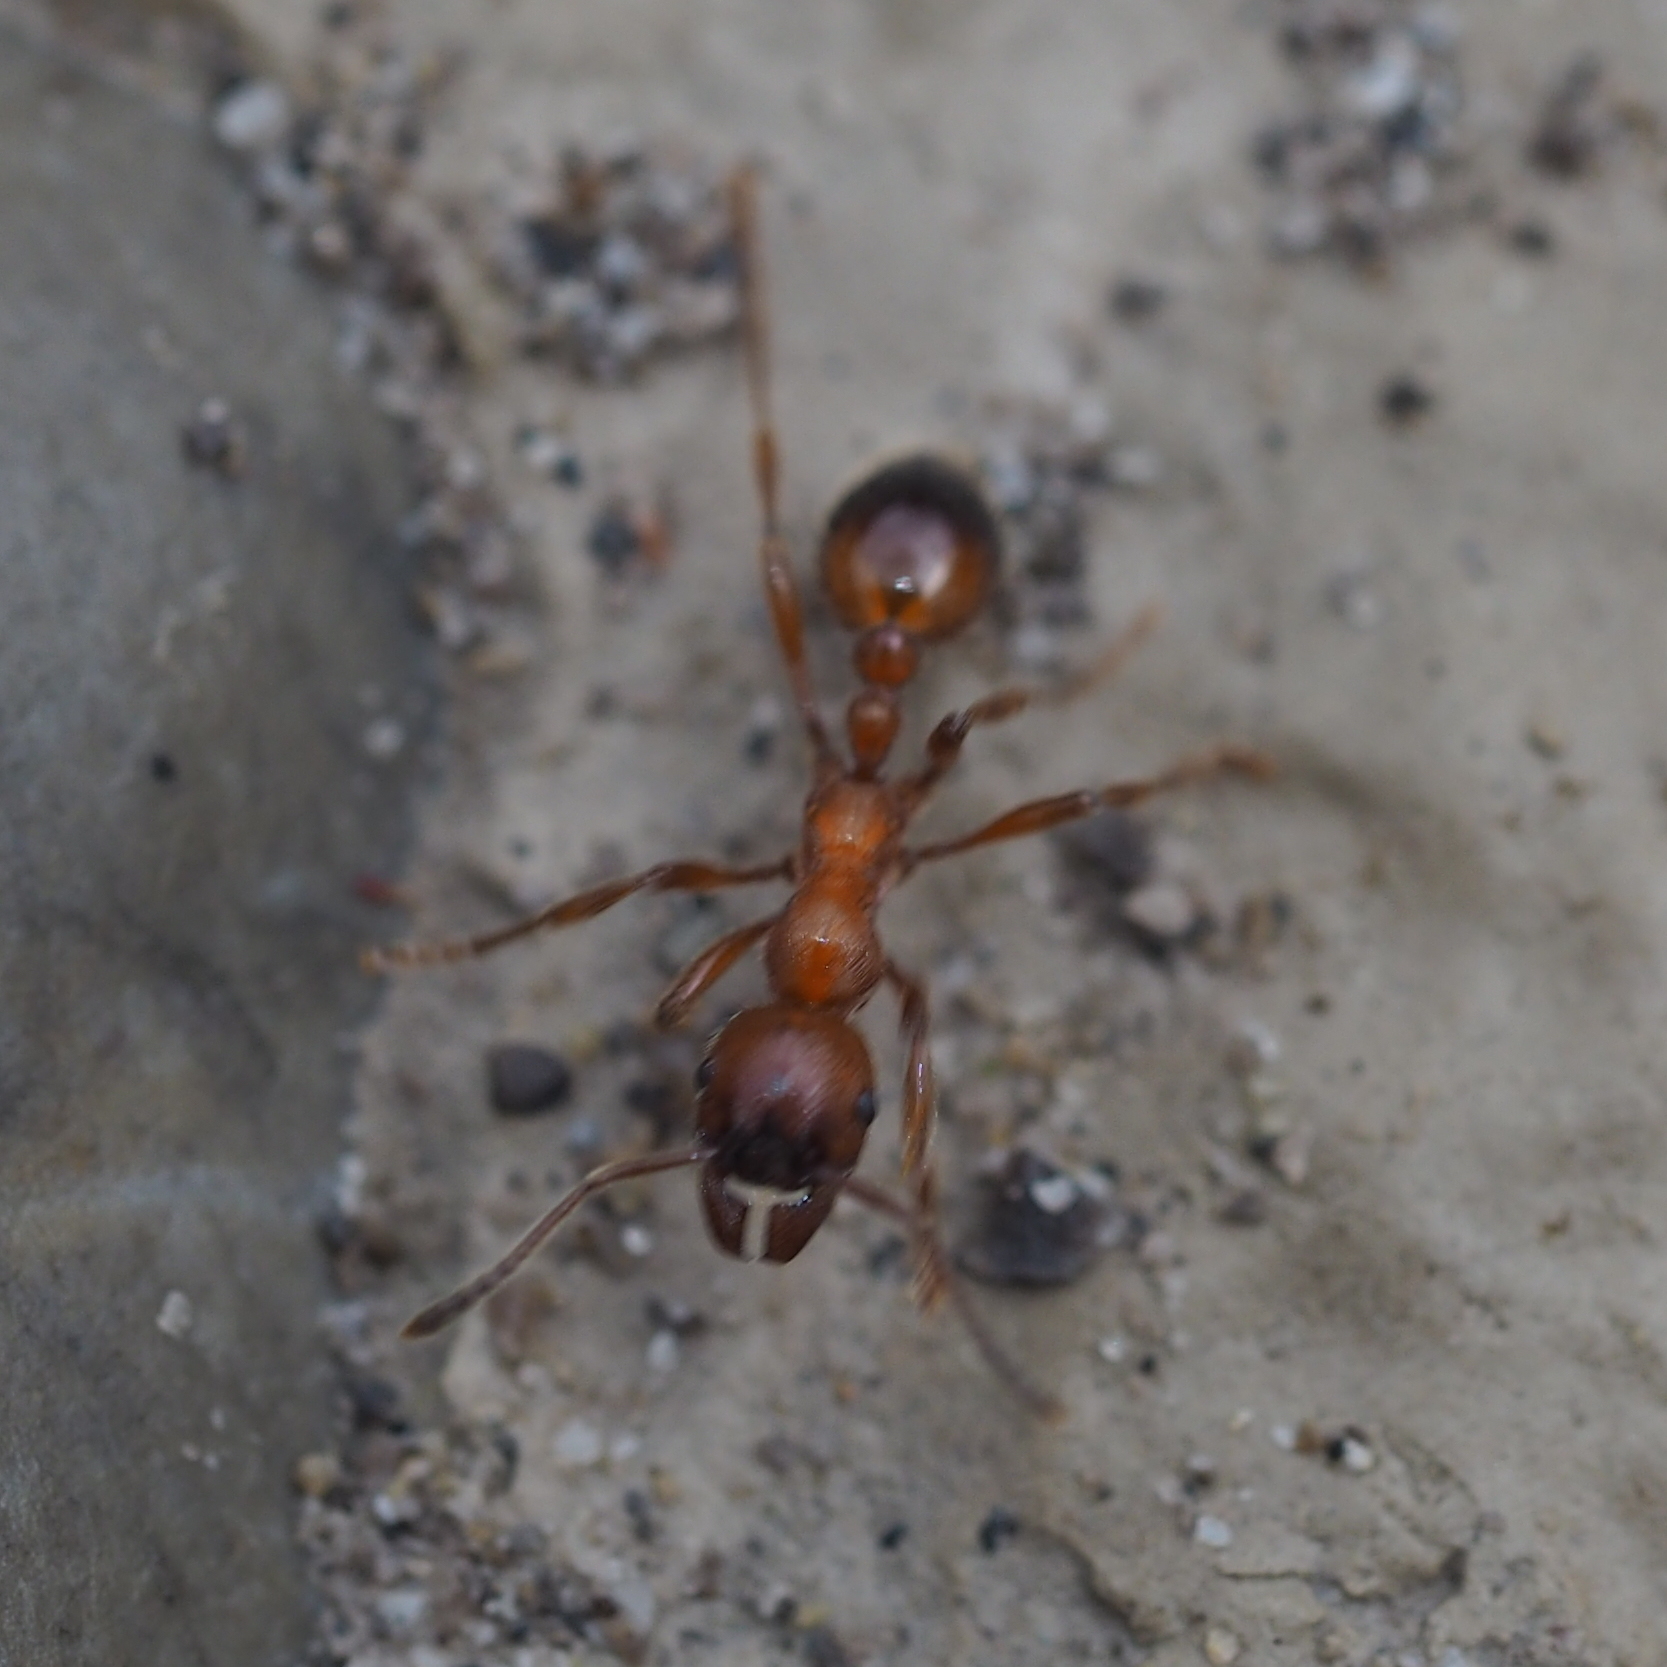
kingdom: Animalia
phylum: Arthropoda
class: Insecta
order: Hymenoptera
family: Formicidae
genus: Manica
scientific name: Manica rubida
